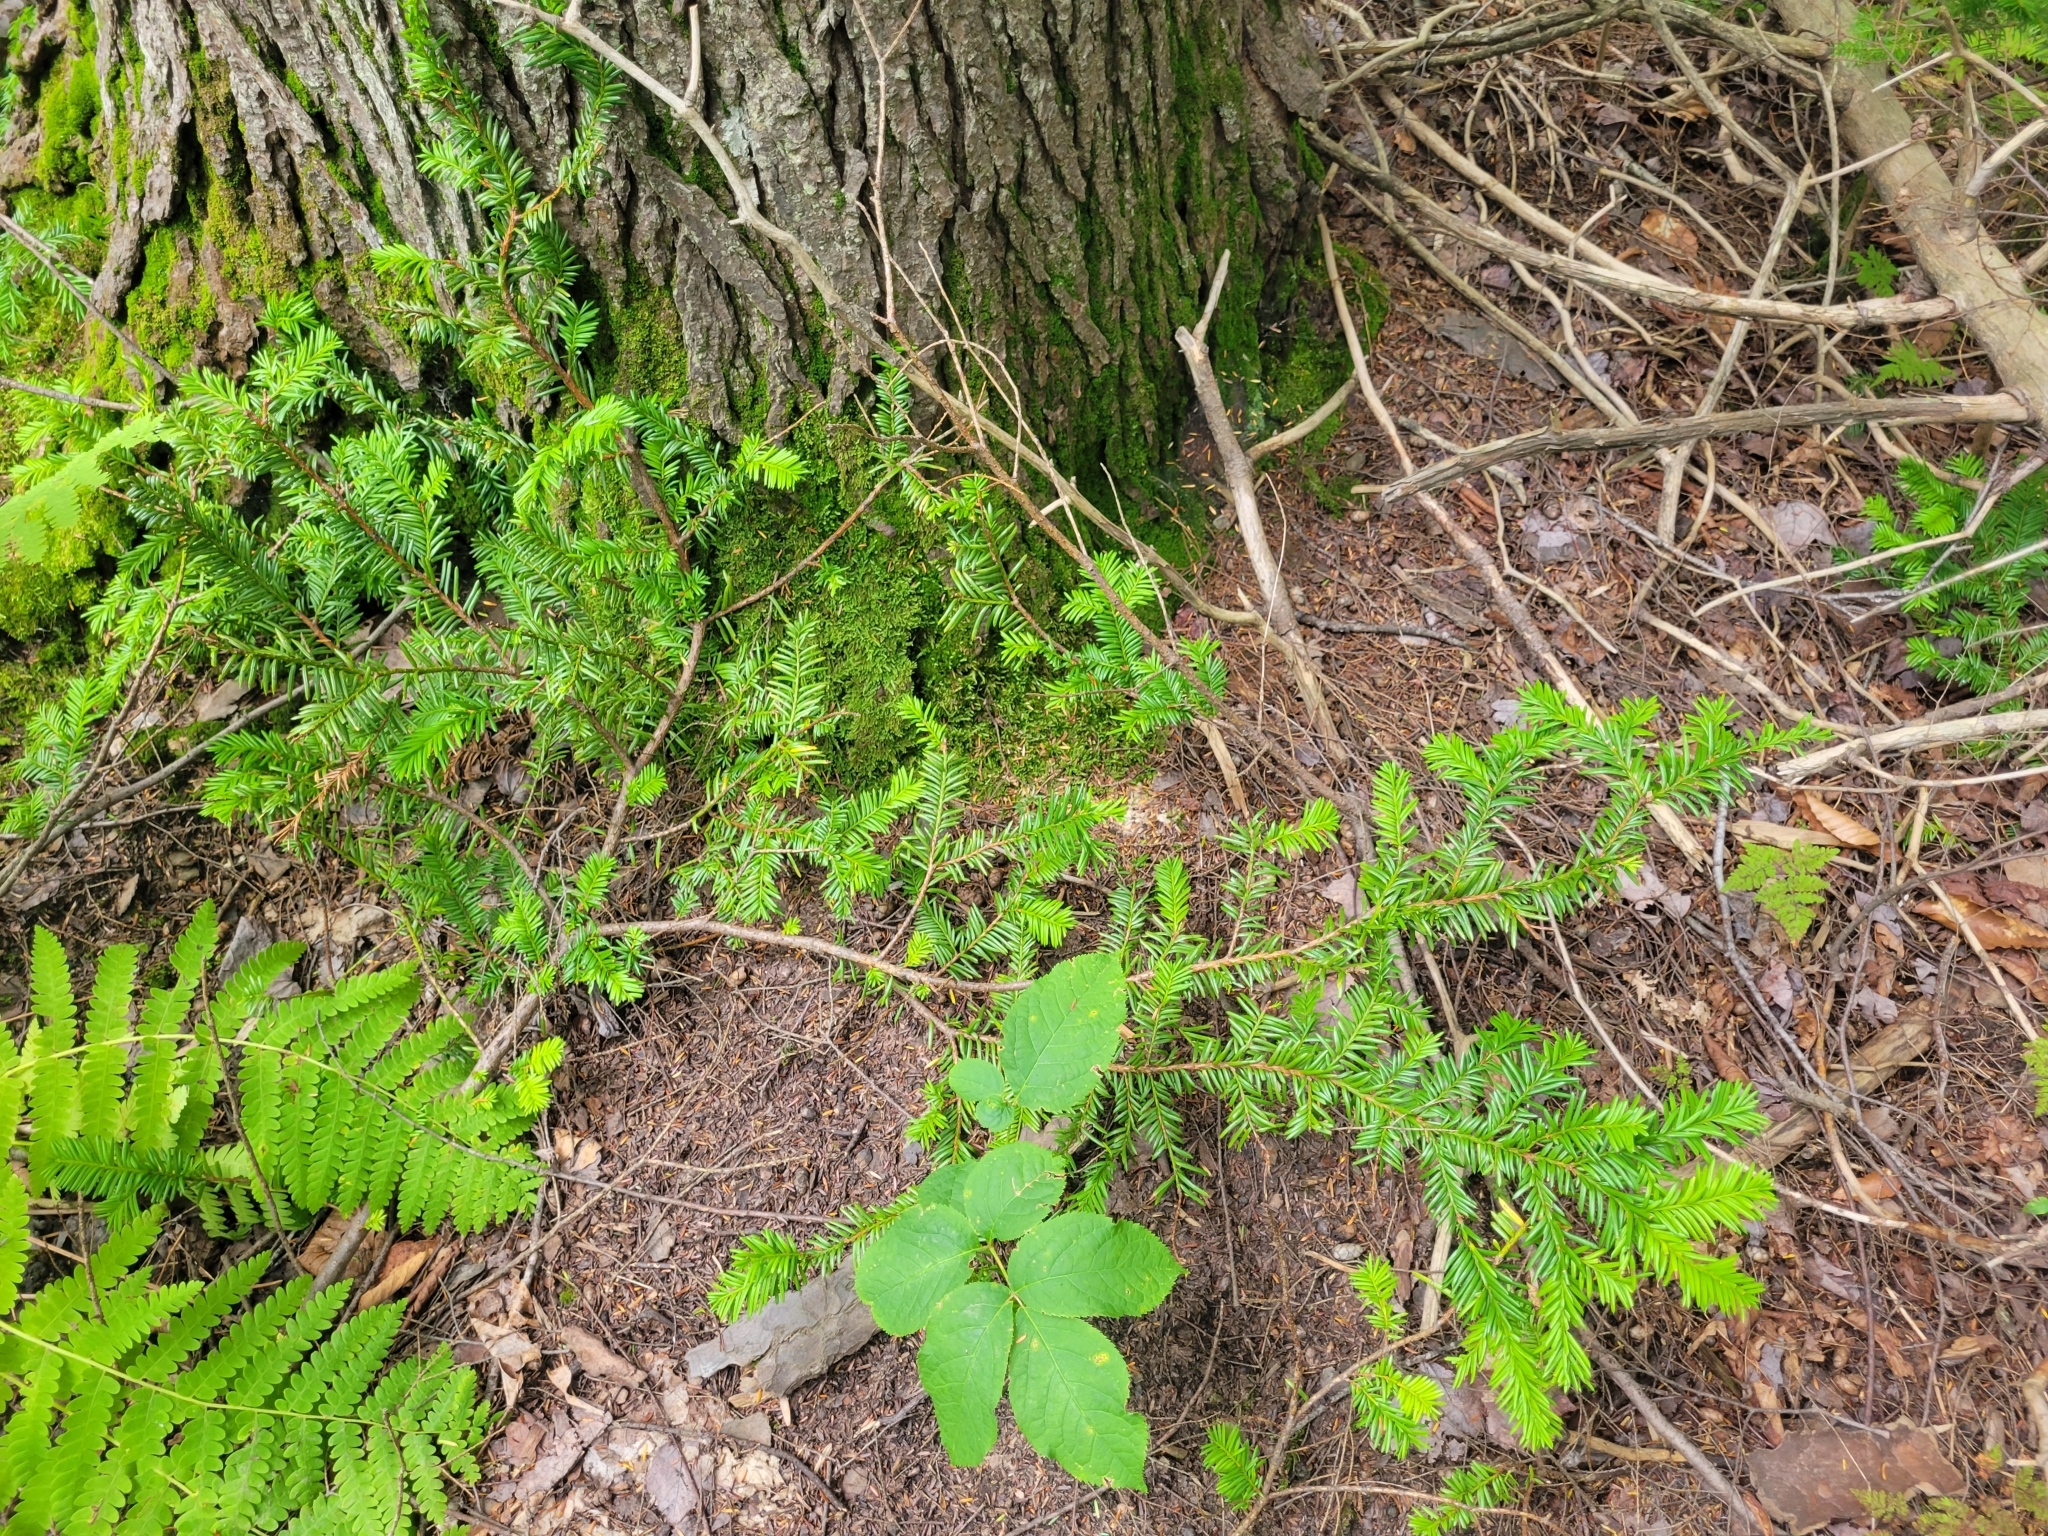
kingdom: Plantae
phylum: Tracheophyta
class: Pinopsida
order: Pinales
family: Taxaceae
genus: Taxus
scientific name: Taxus canadensis
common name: American yew
